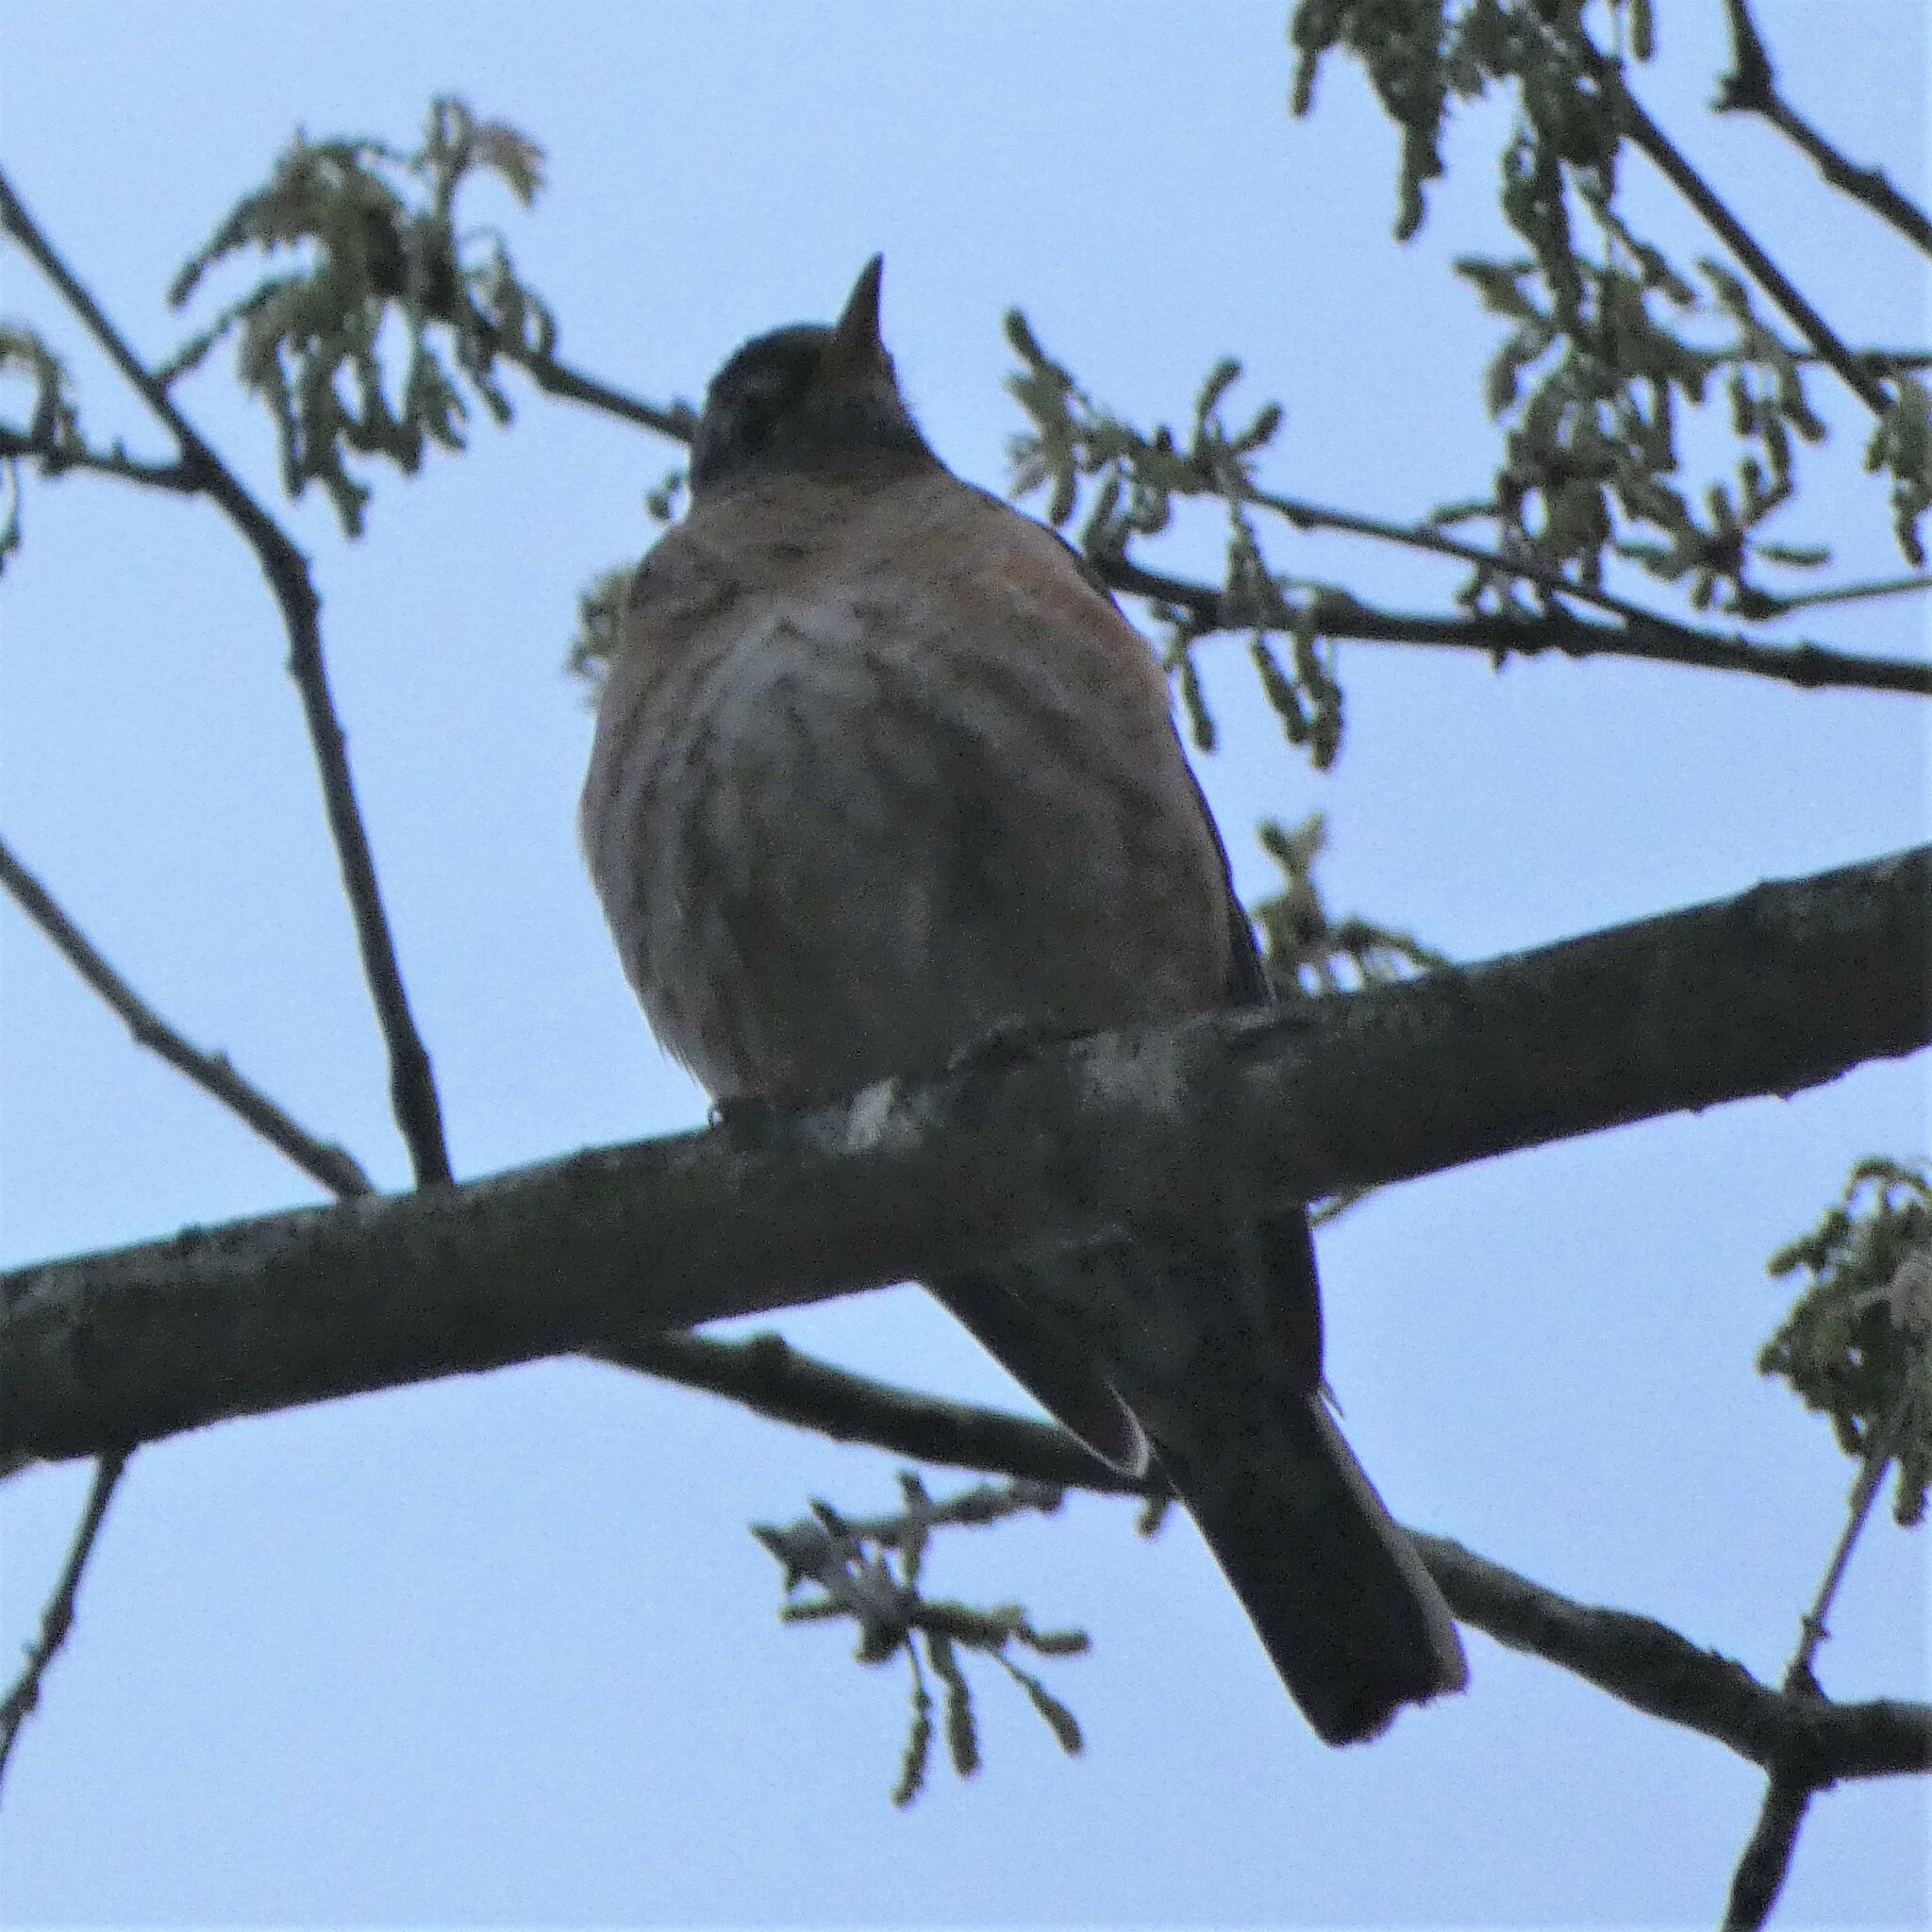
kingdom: Animalia
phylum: Chordata
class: Aves
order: Passeriformes
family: Turdidae
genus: Turdus
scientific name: Turdus migratorius
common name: American robin
